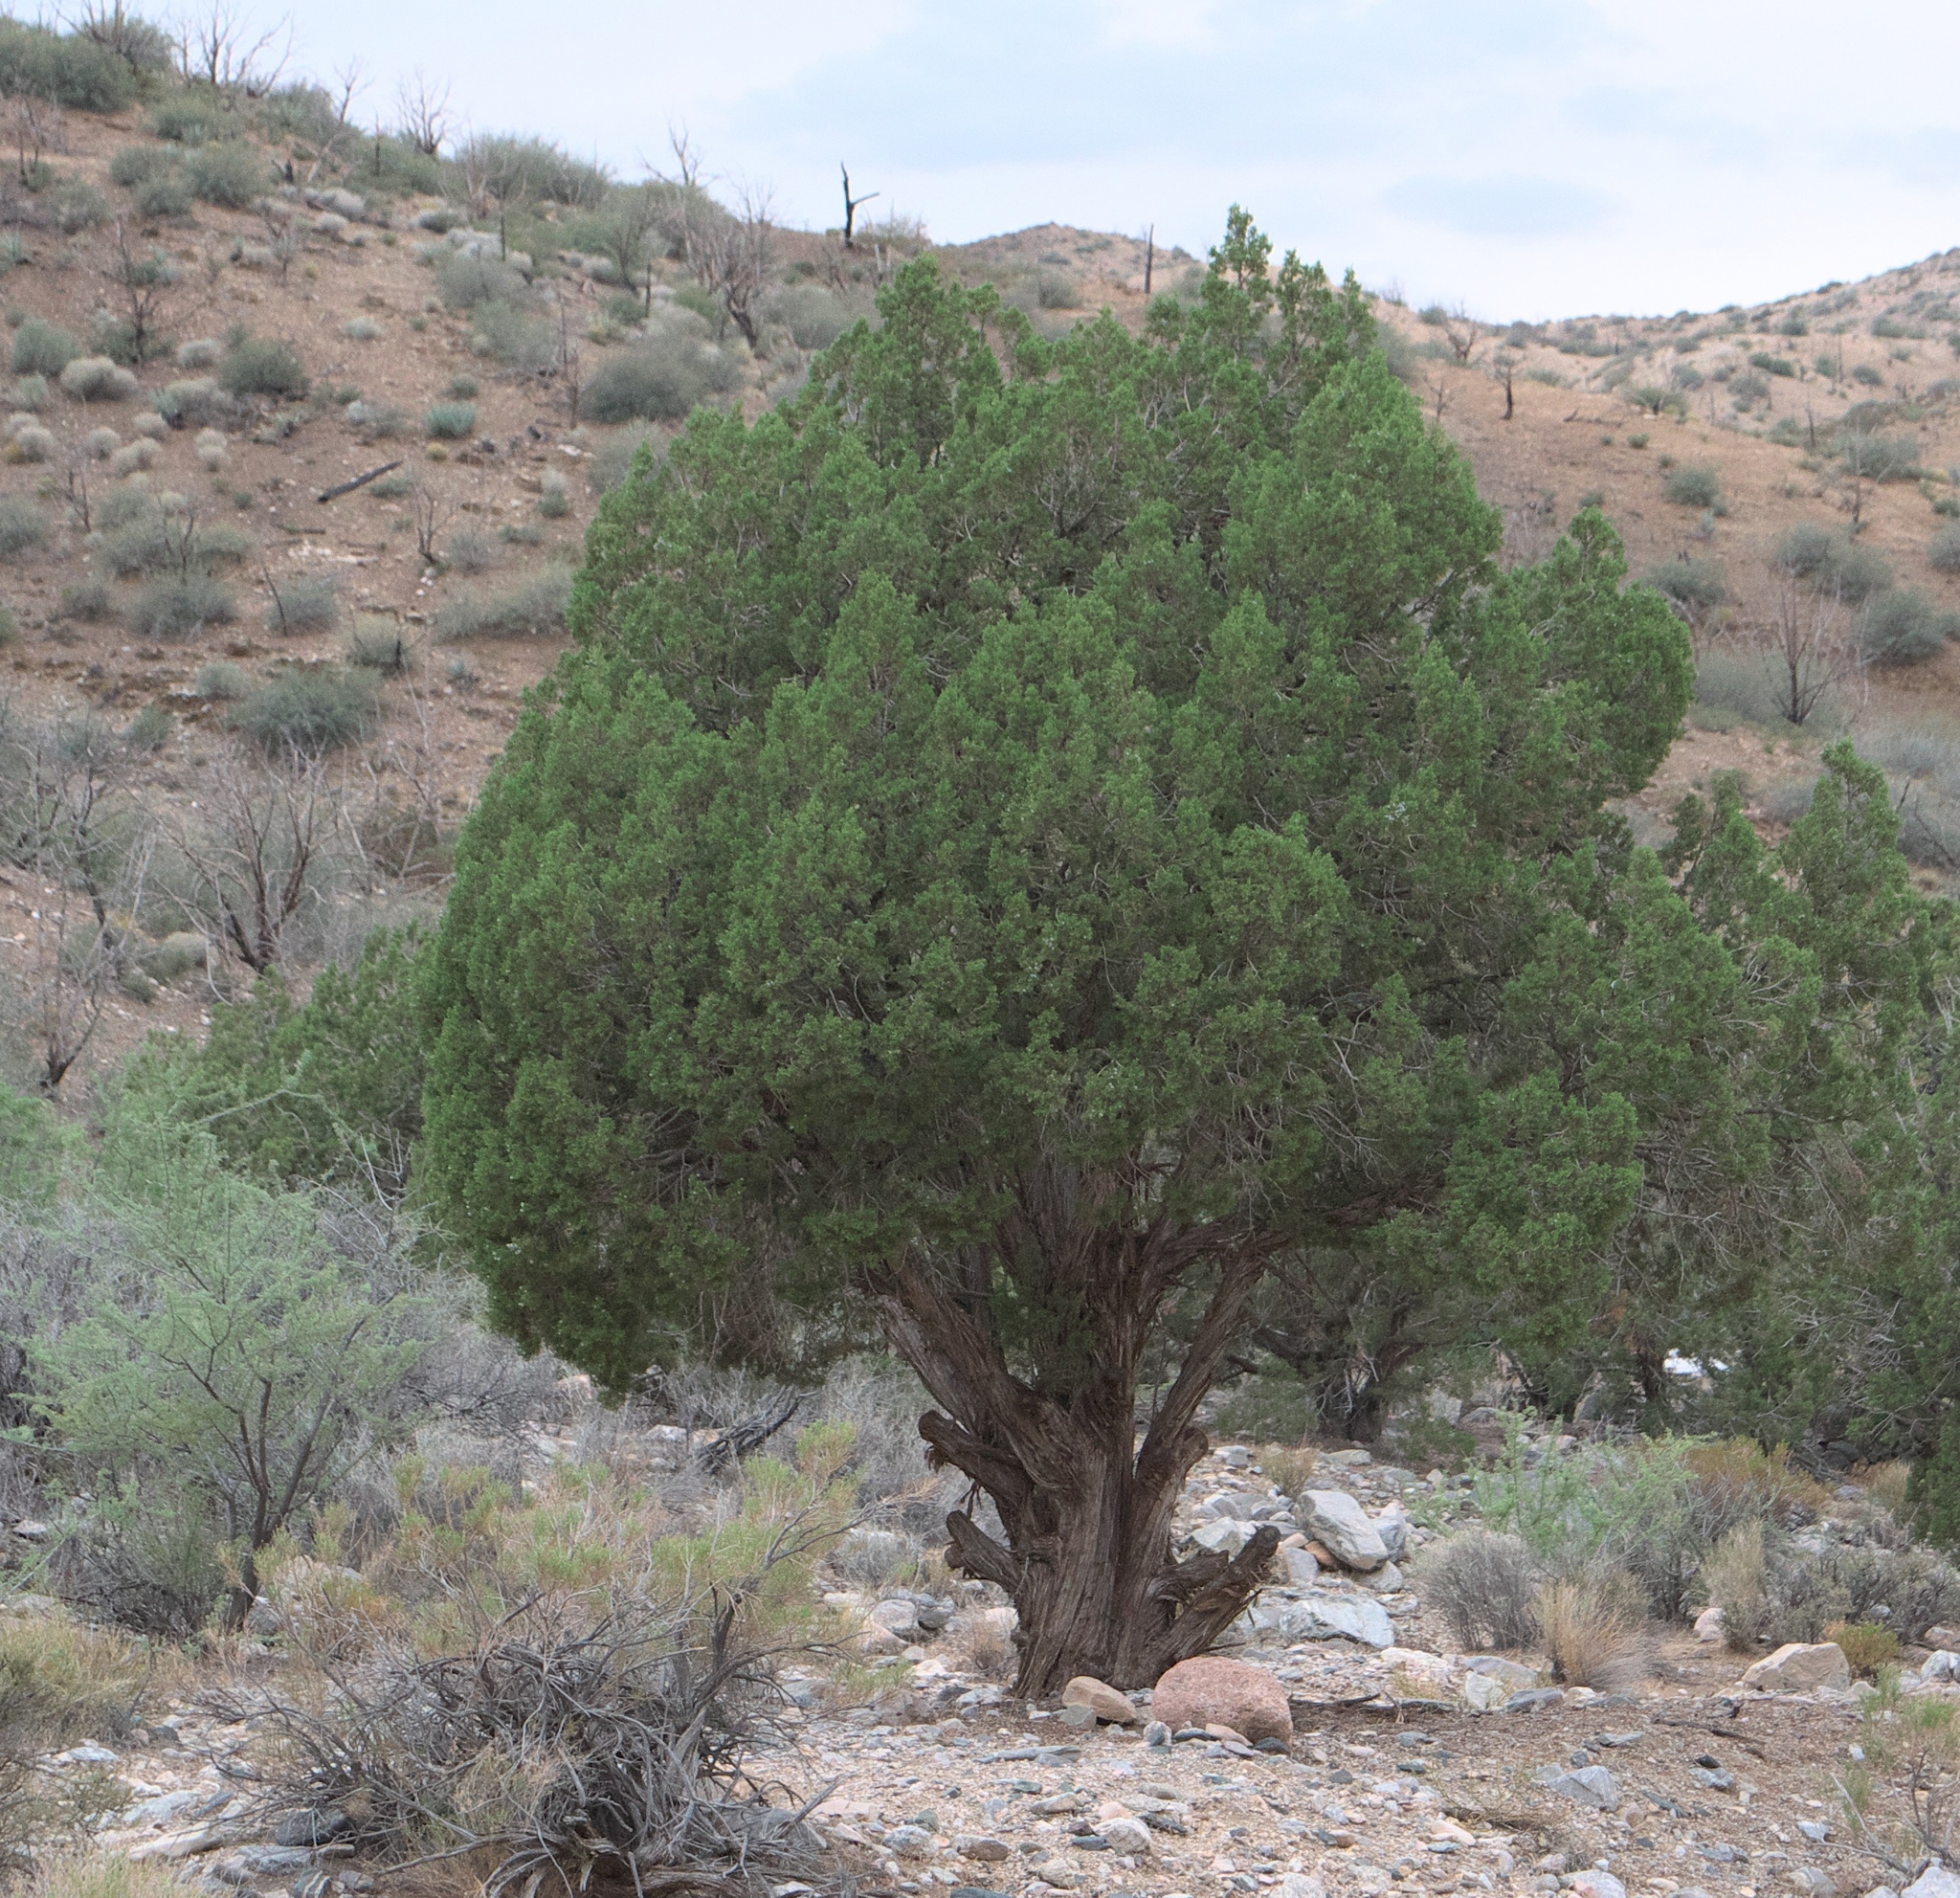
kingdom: Plantae
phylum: Tracheophyta
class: Pinopsida
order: Pinales
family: Cupressaceae
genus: Juniperus
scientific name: Juniperus osteosperma
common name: Utah juniper
